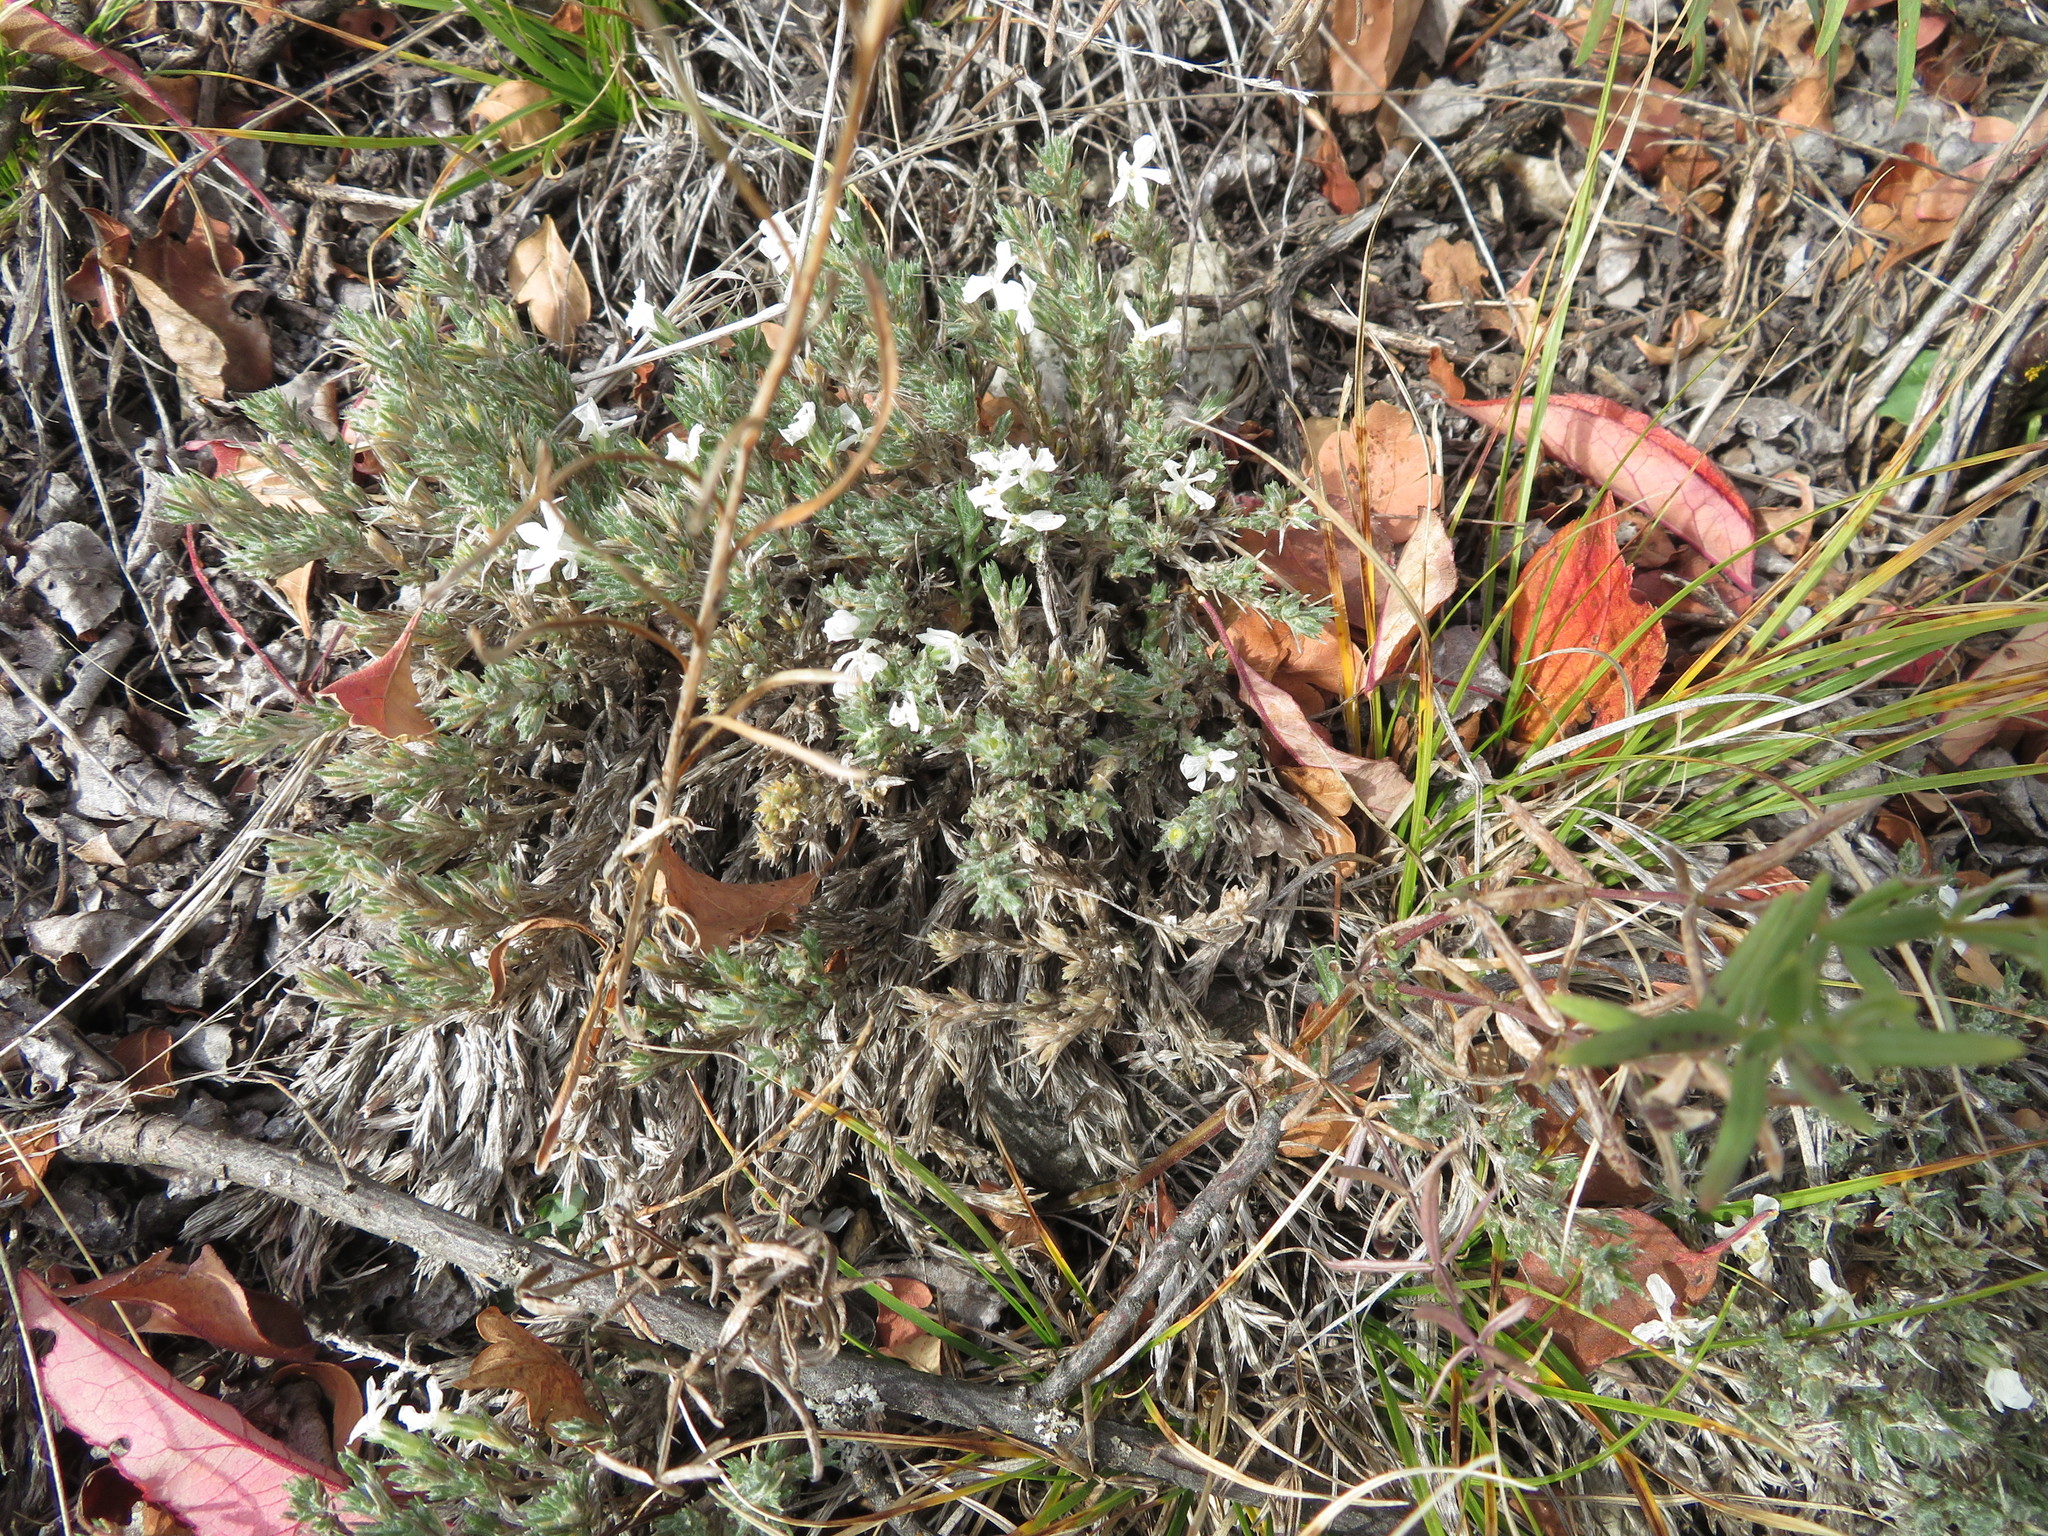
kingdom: Plantae
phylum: Tracheophyta
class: Magnoliopsida
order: Ericales
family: Polemoniaceae
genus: Phlox
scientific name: Phlox hoodii
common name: Moss phlox
